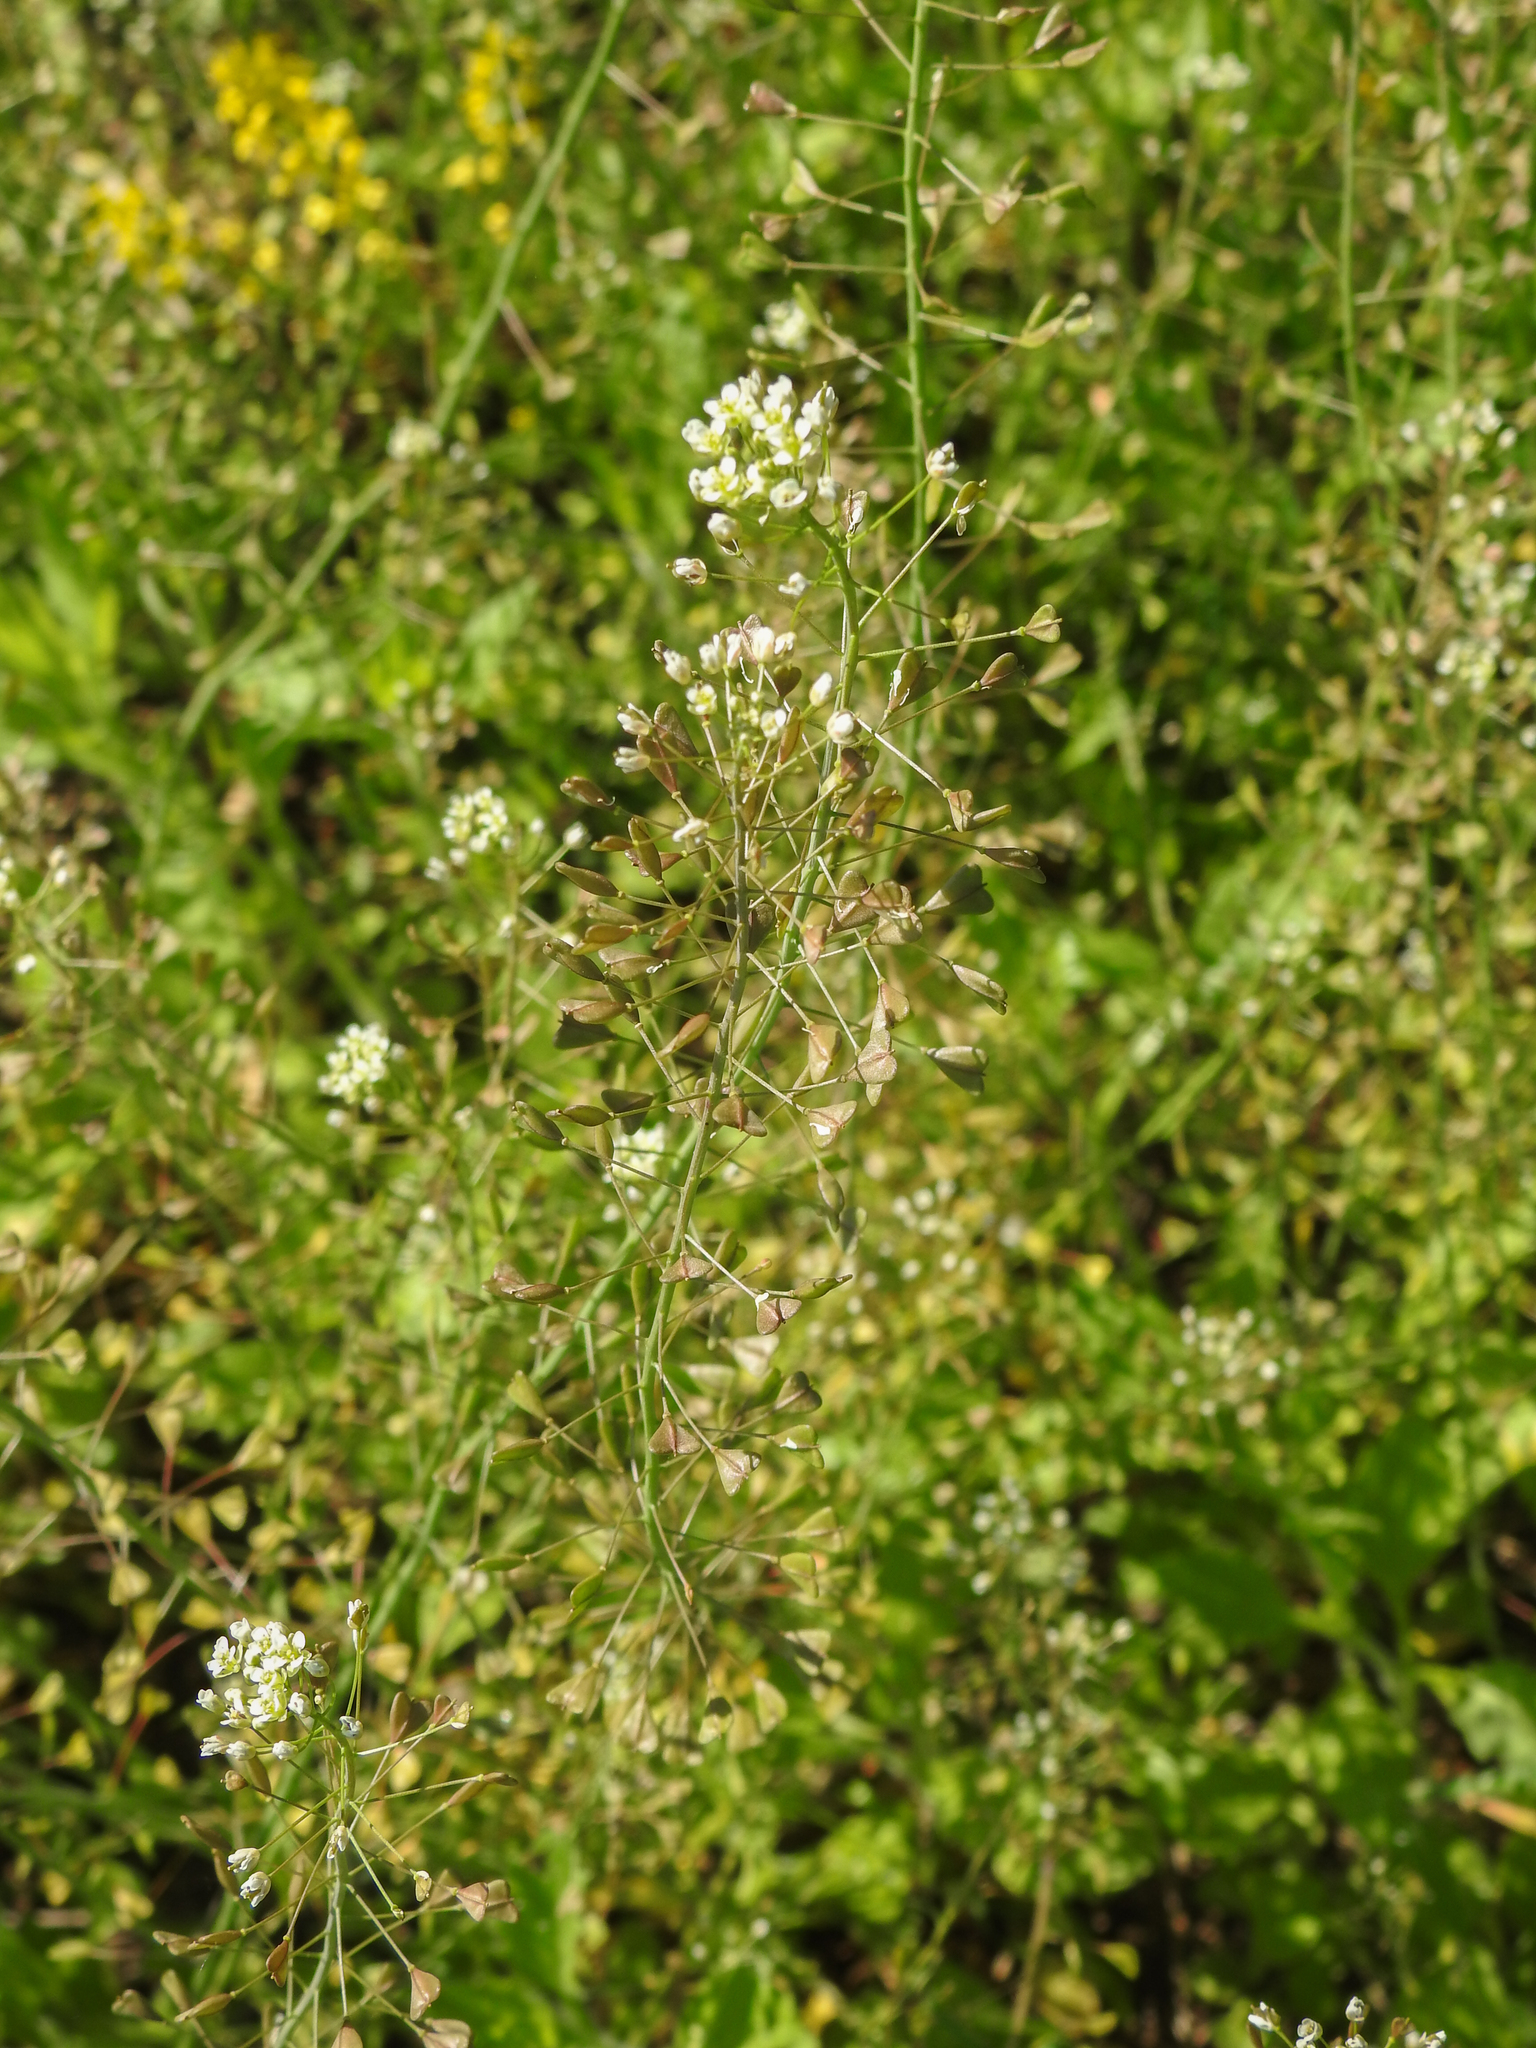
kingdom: Plantae
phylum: Tracheophyta
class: Magnoliopsida
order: Brassicales
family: Brassicaceae
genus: Capsella
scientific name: Capsella bursa-pastoris
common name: Shepherd's purse
